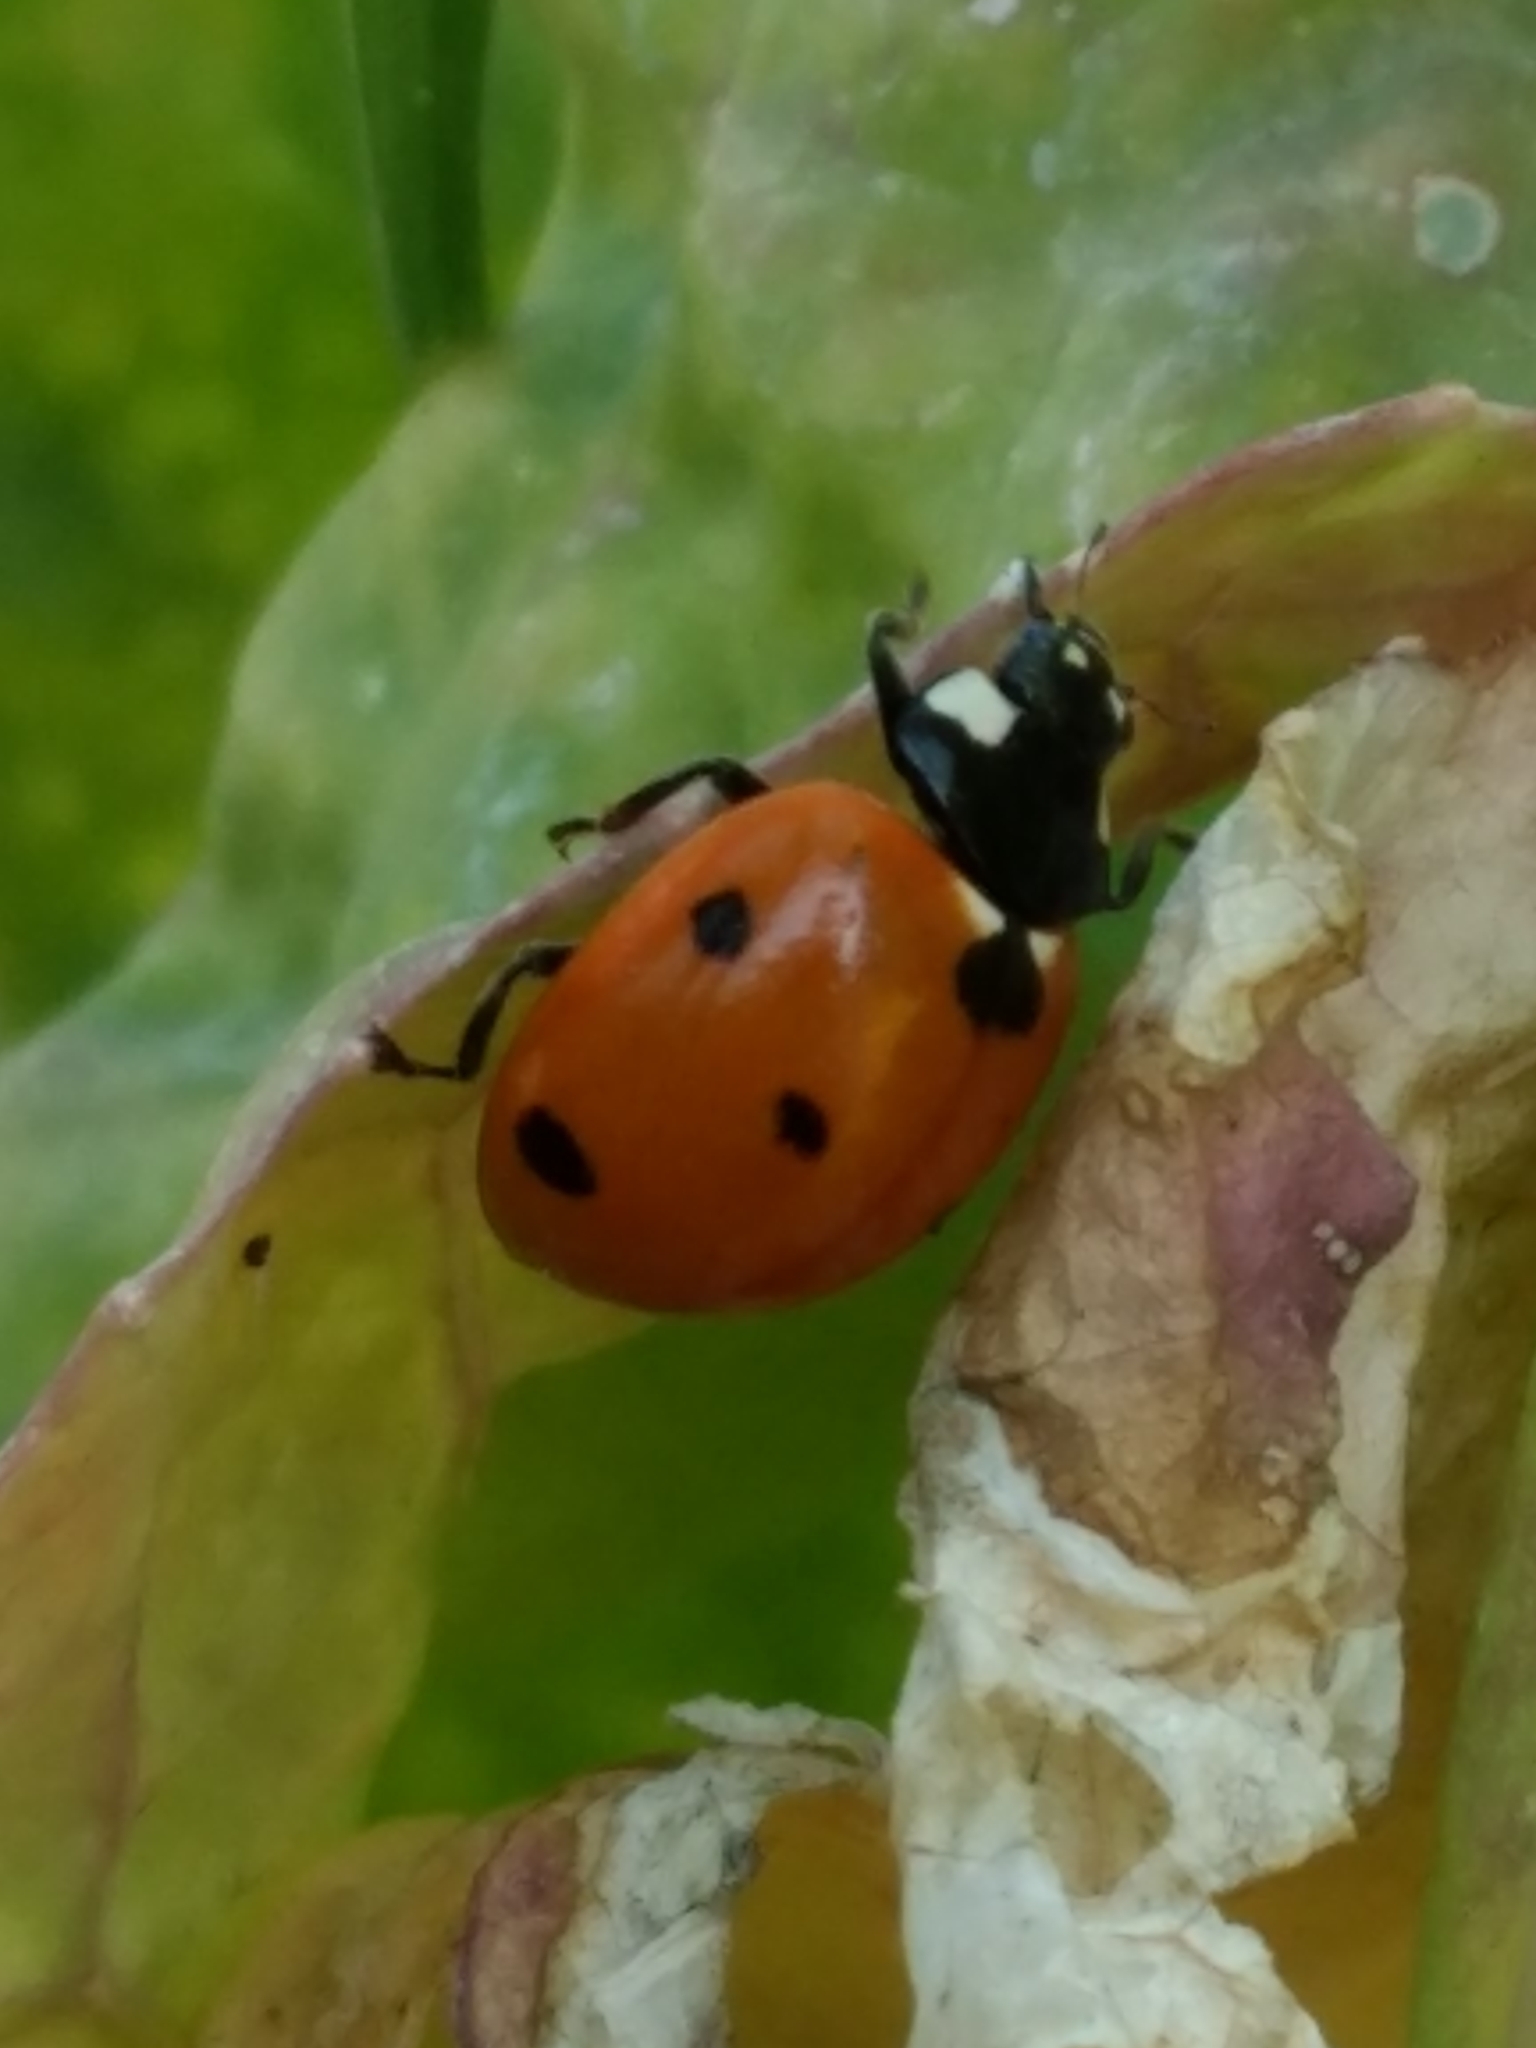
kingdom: Animalia
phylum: Arthropoda
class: Insecta
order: Coleoptera
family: Coccinellidae
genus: Coccinella
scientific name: Coccinella septempunctata
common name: Sevenspotted lady beetle
